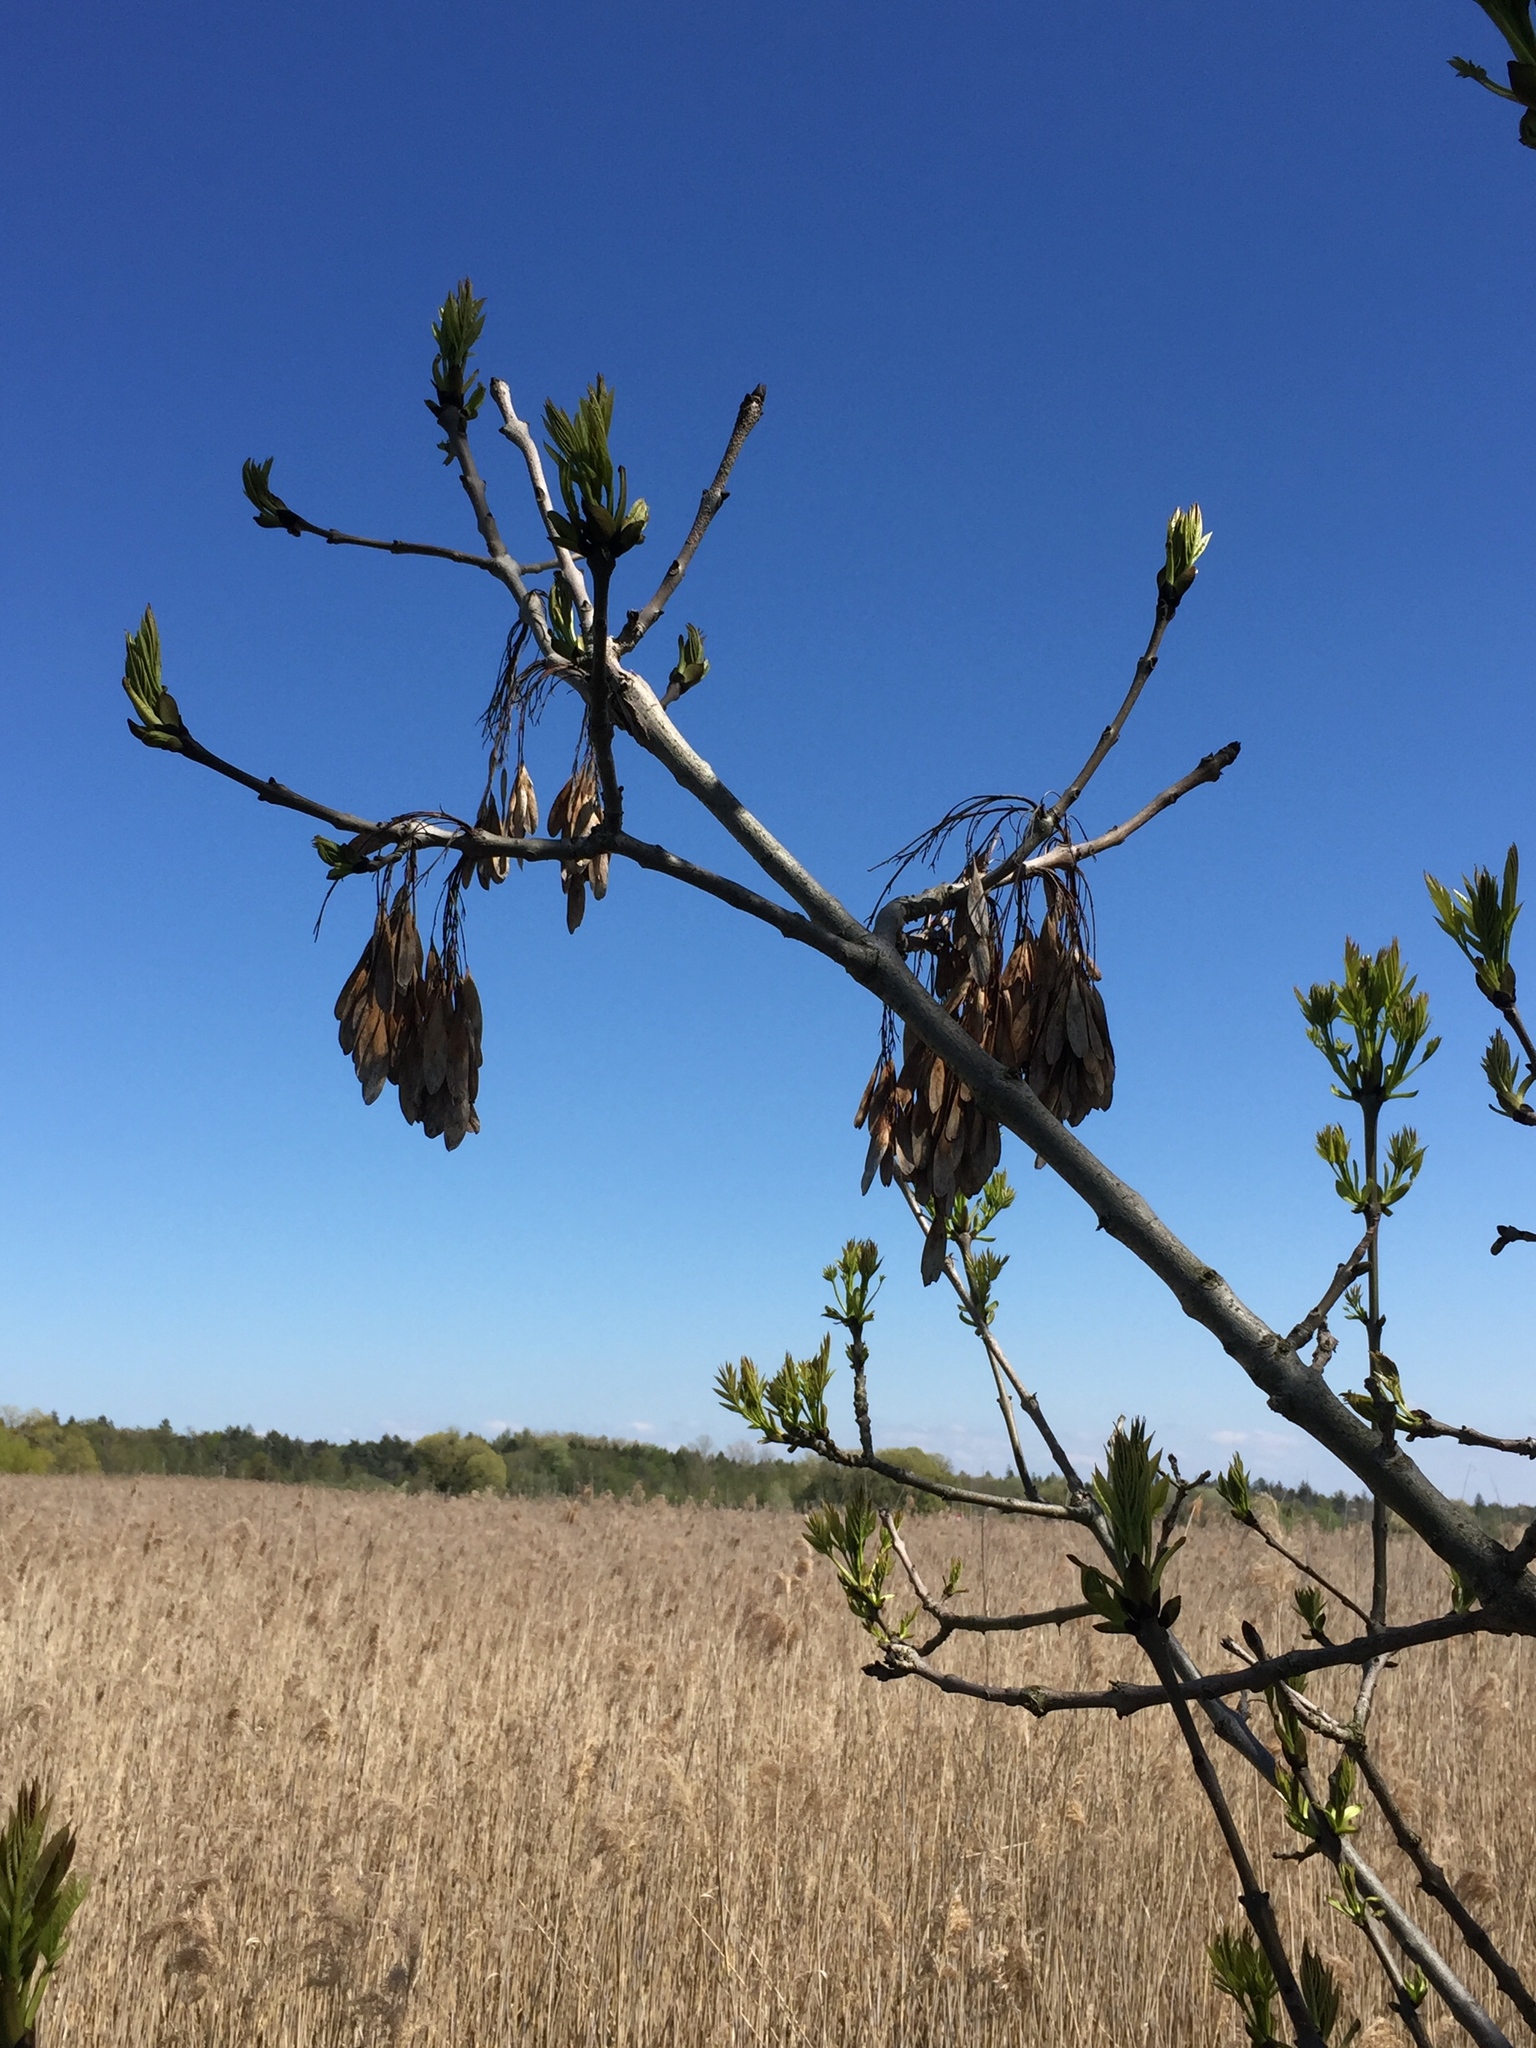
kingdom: Plantae
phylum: Tracheophyta
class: Magnoliopsida
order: Lamiales
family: Oleaceae
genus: Fraxinus
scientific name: Fraxinus excelsior
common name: European ash
